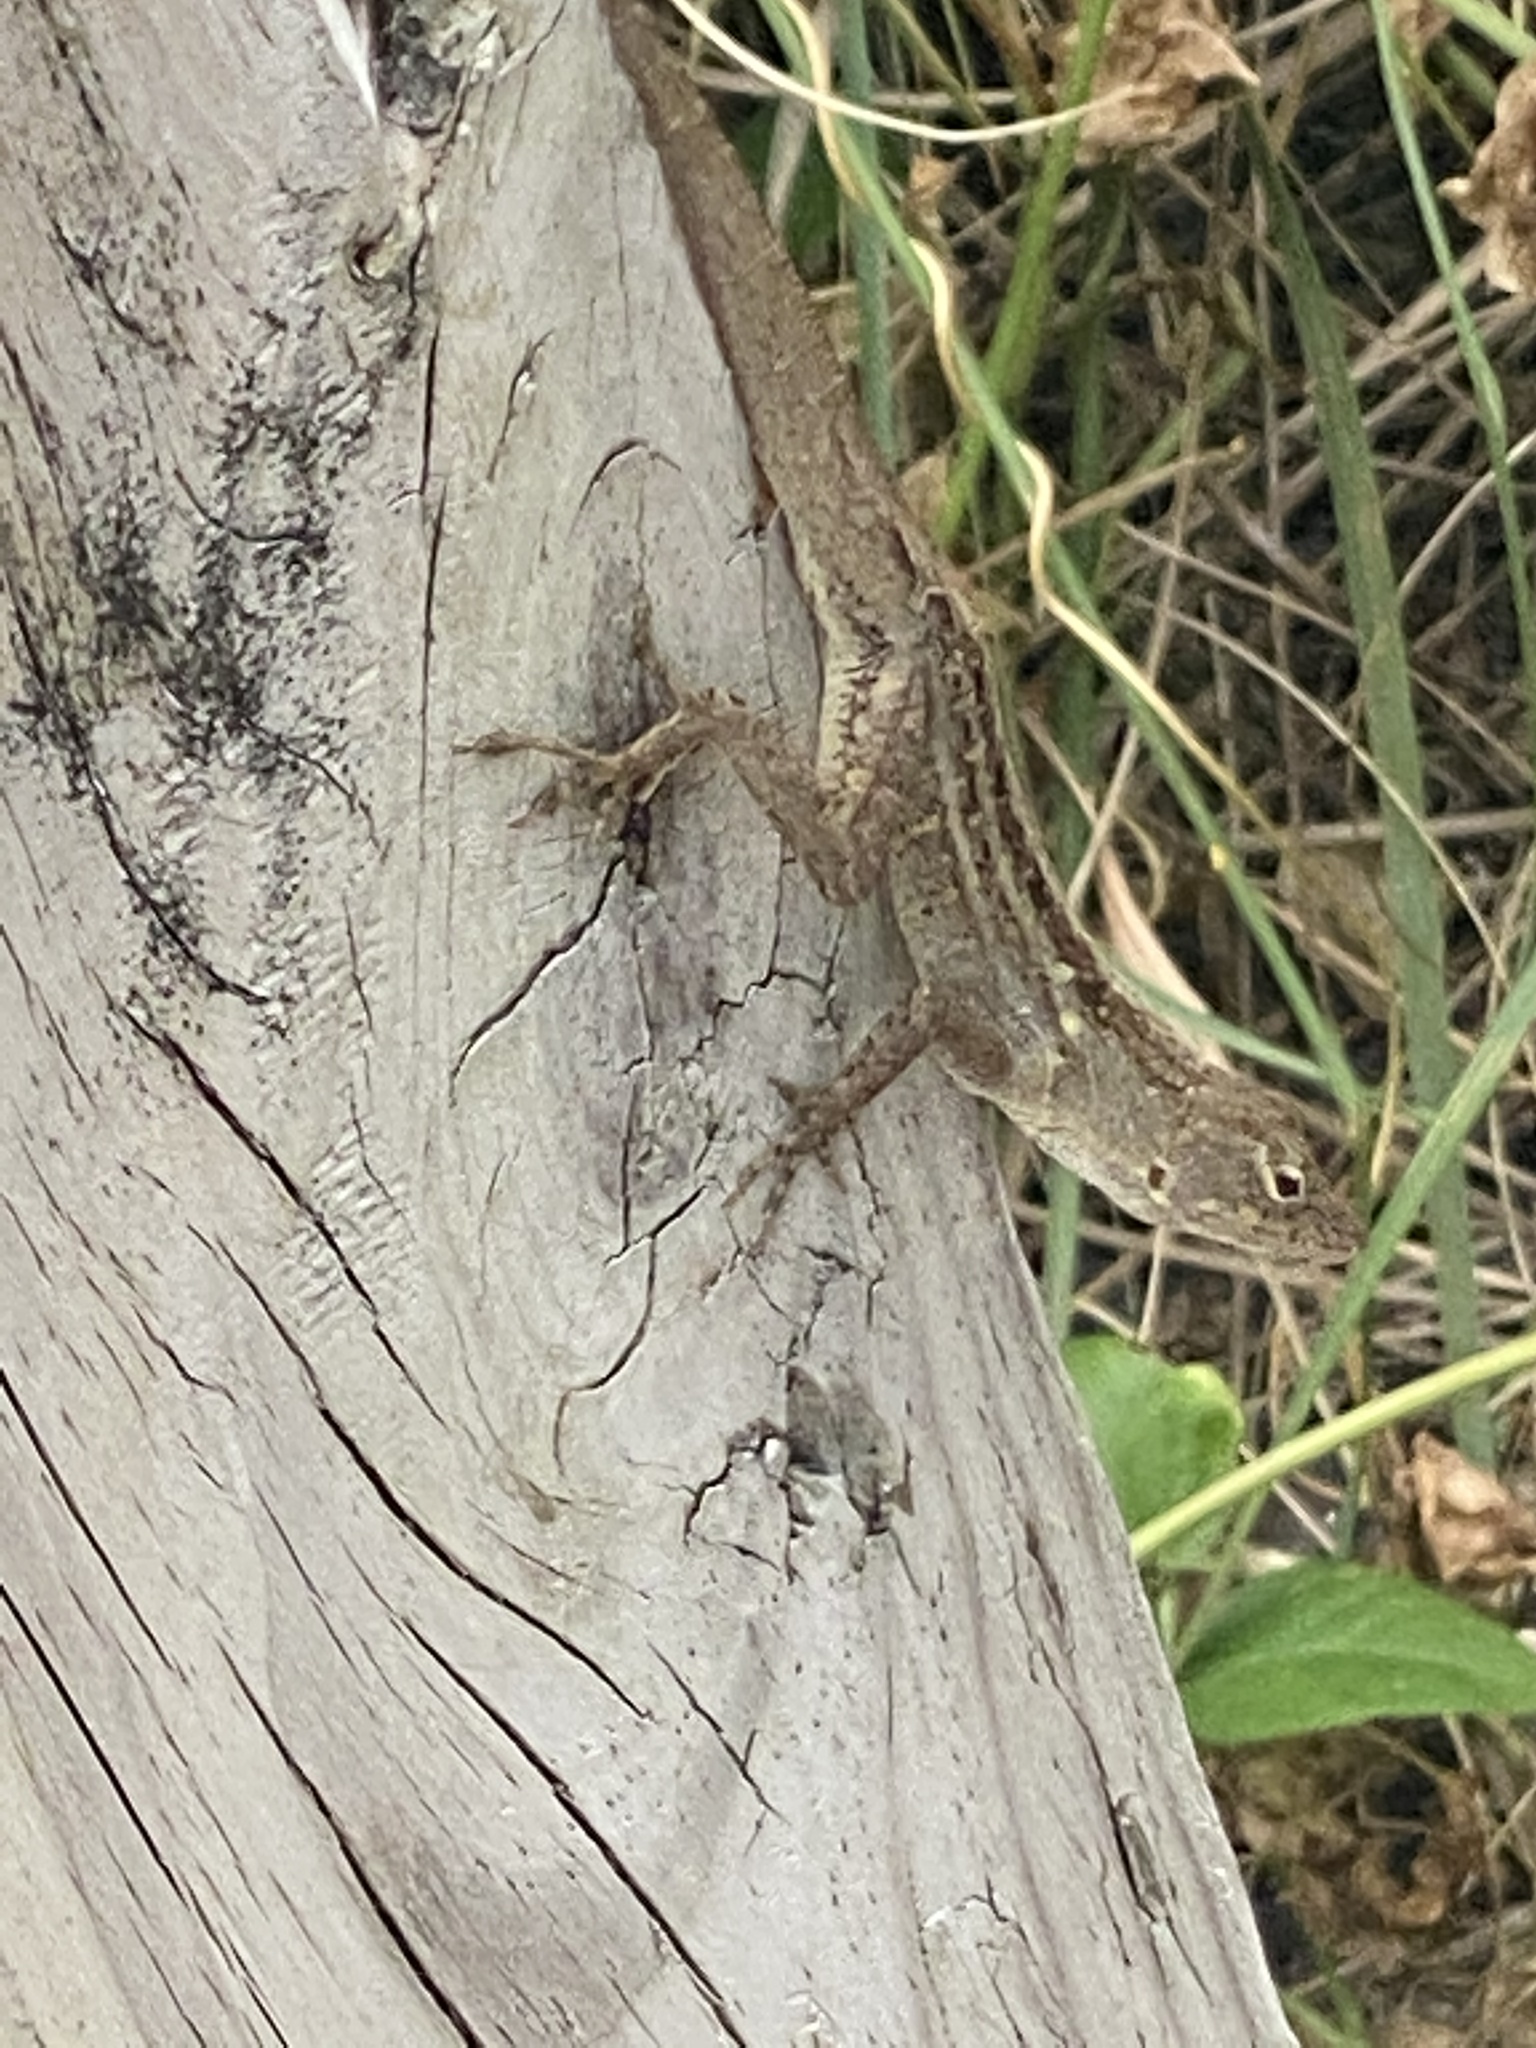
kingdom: Animalia
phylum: Chordata
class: Squamata
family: Dactyloidae
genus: Anolis
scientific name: Anolis sagrei
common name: Brown anole
